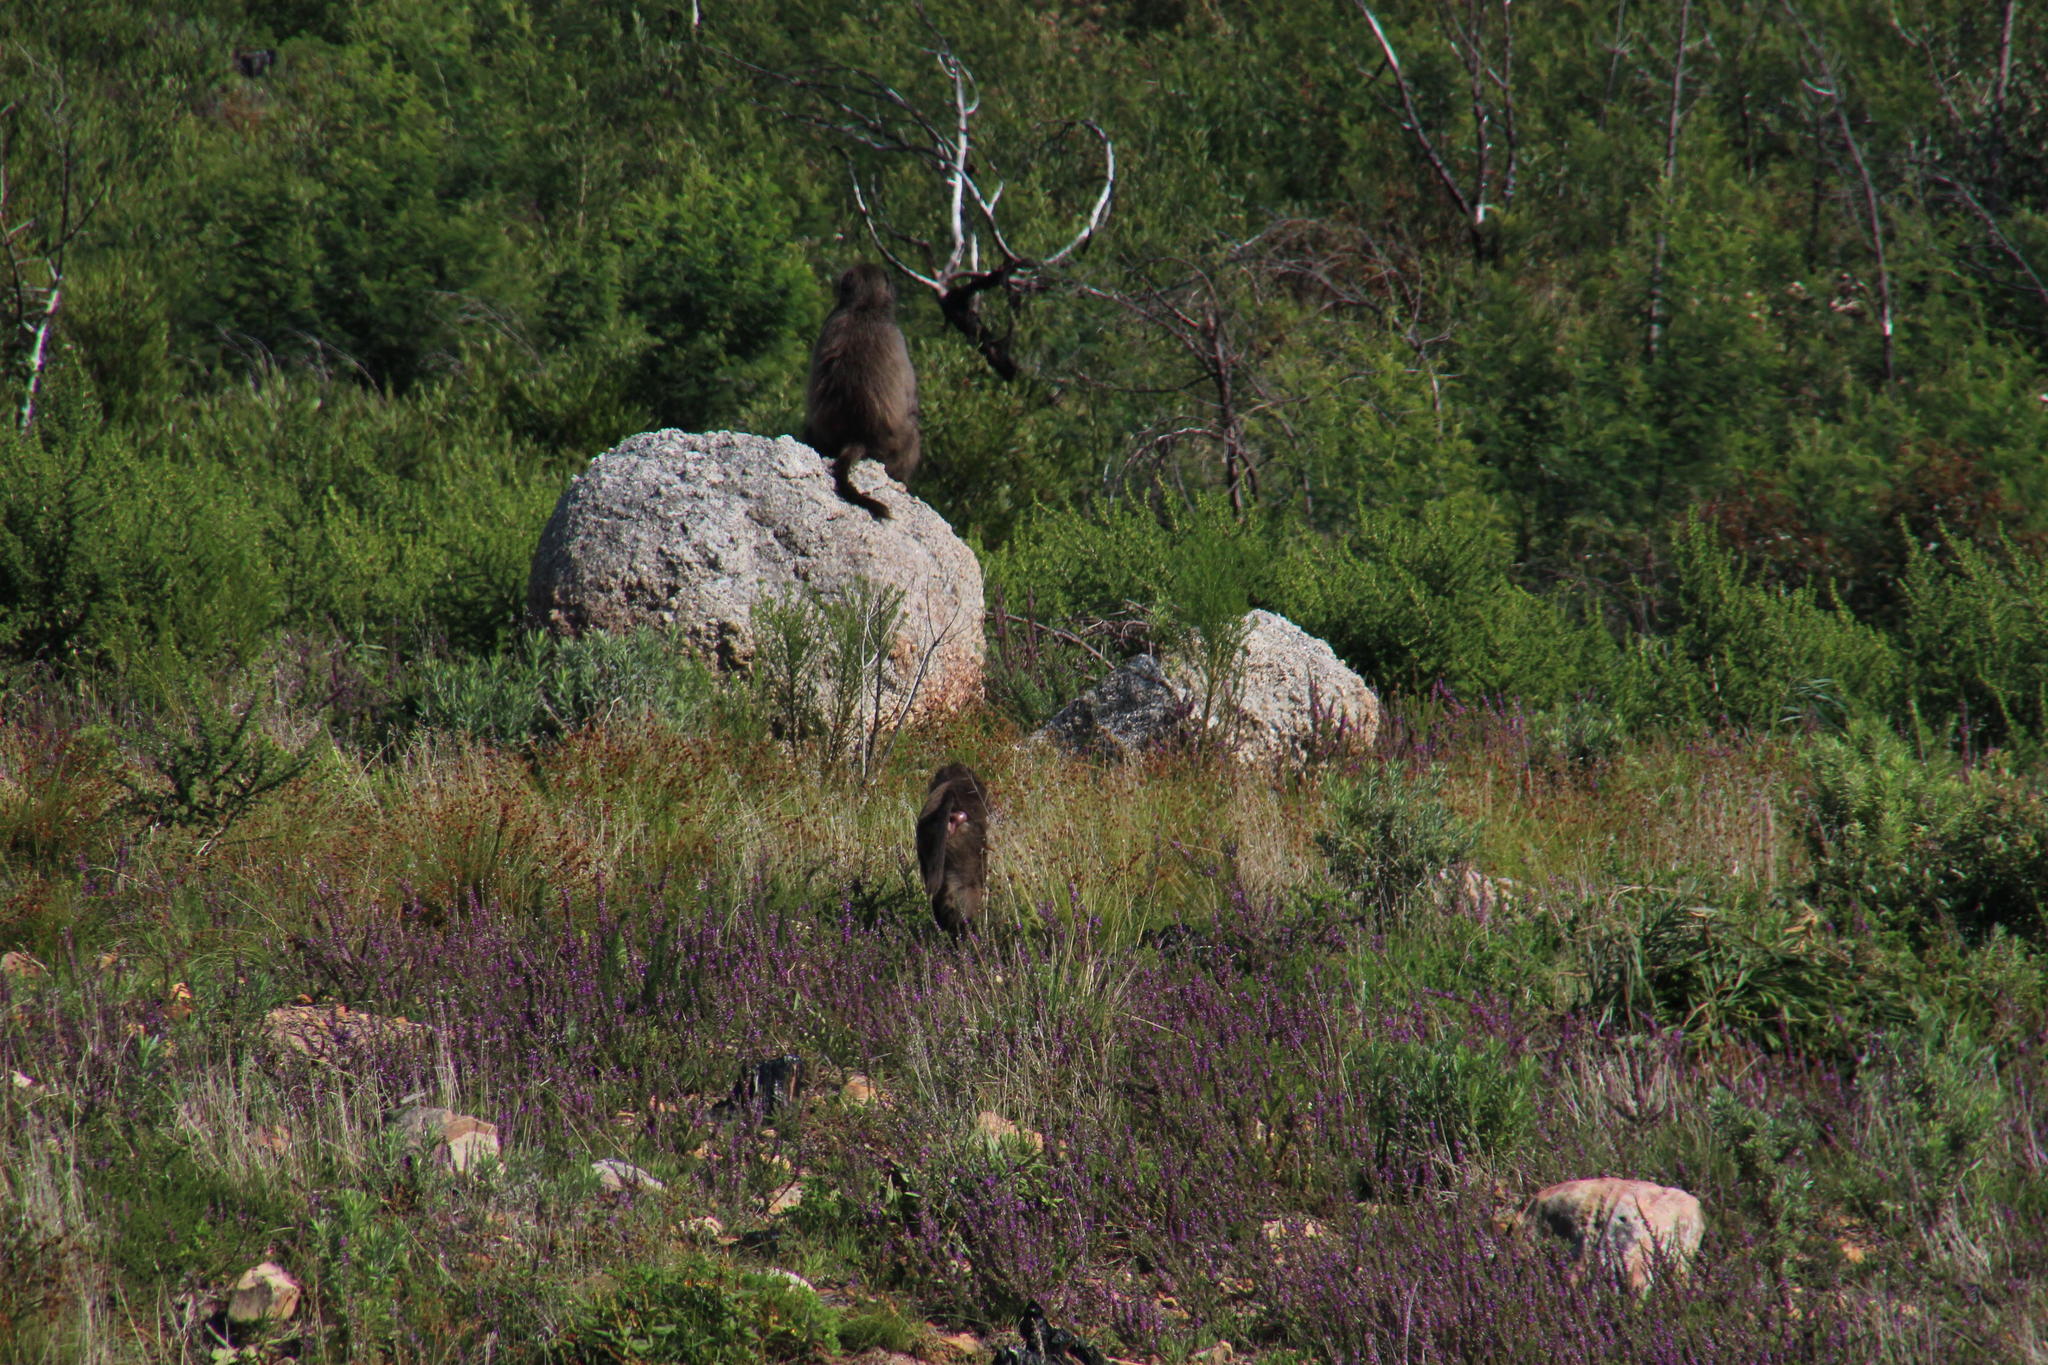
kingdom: Animalia
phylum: Chordata
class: Mammalia
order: Primates
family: Cercopithecidae
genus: Papio
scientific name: Papio ursinus
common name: Chacma baboon
